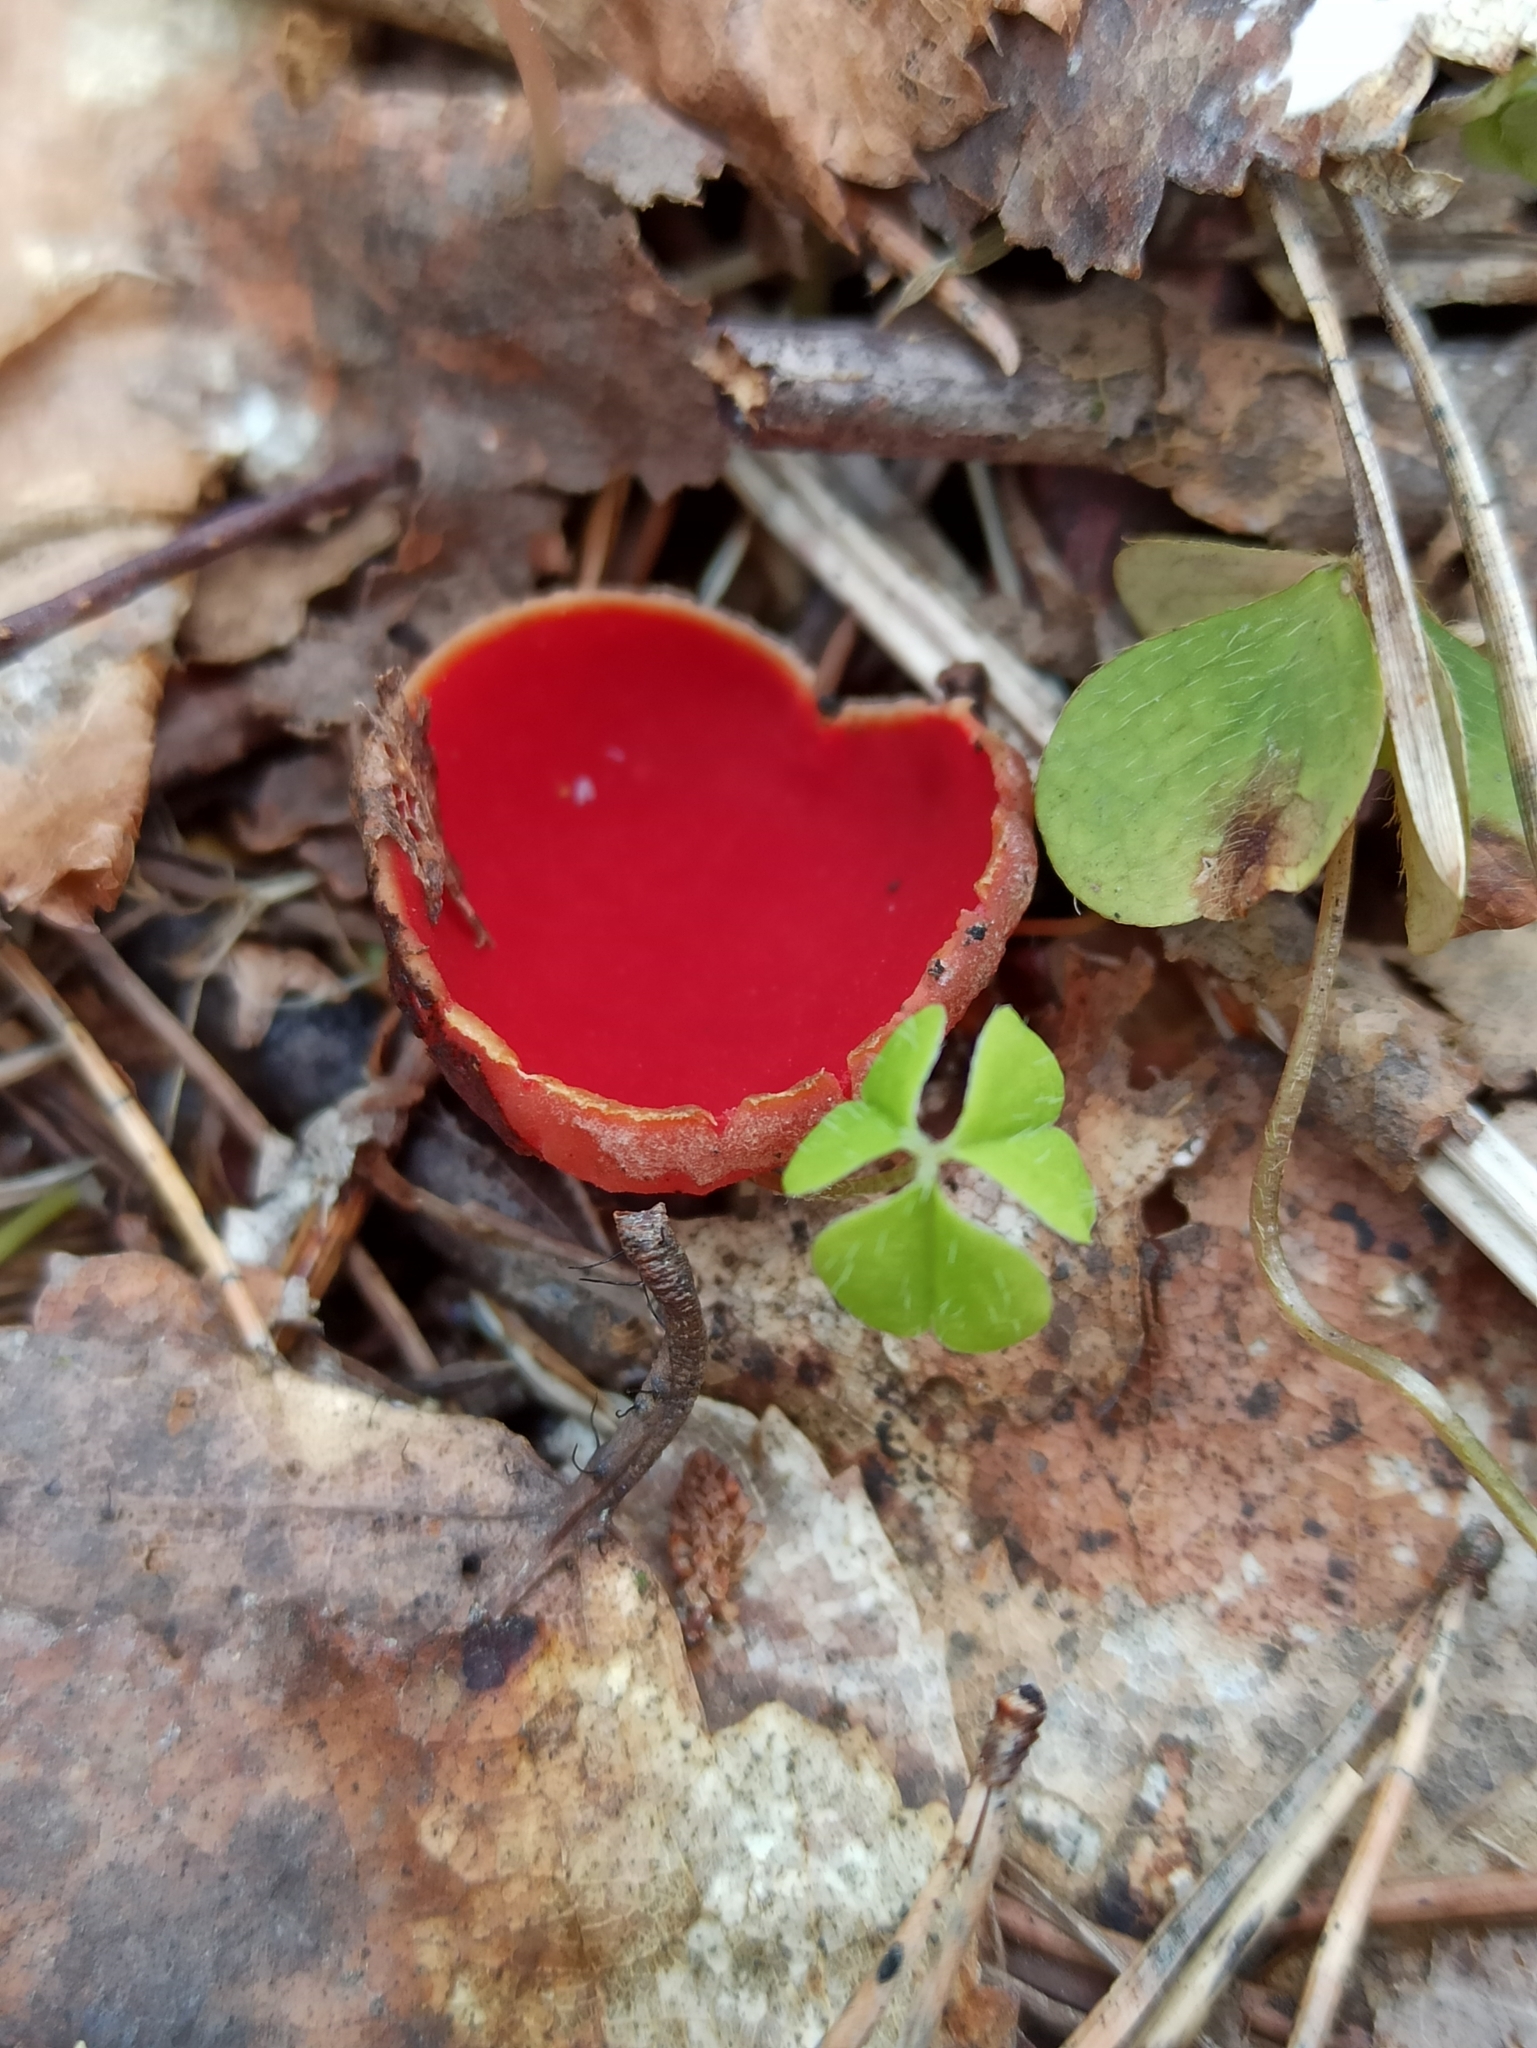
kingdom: Fungi
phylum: Ascomycota
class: Pezizomycetes
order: Pezizales
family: Sarcoscyphaceae
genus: Sarcoscypha
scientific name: Sarcoscypha austriaca
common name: Scarlet elfcup
